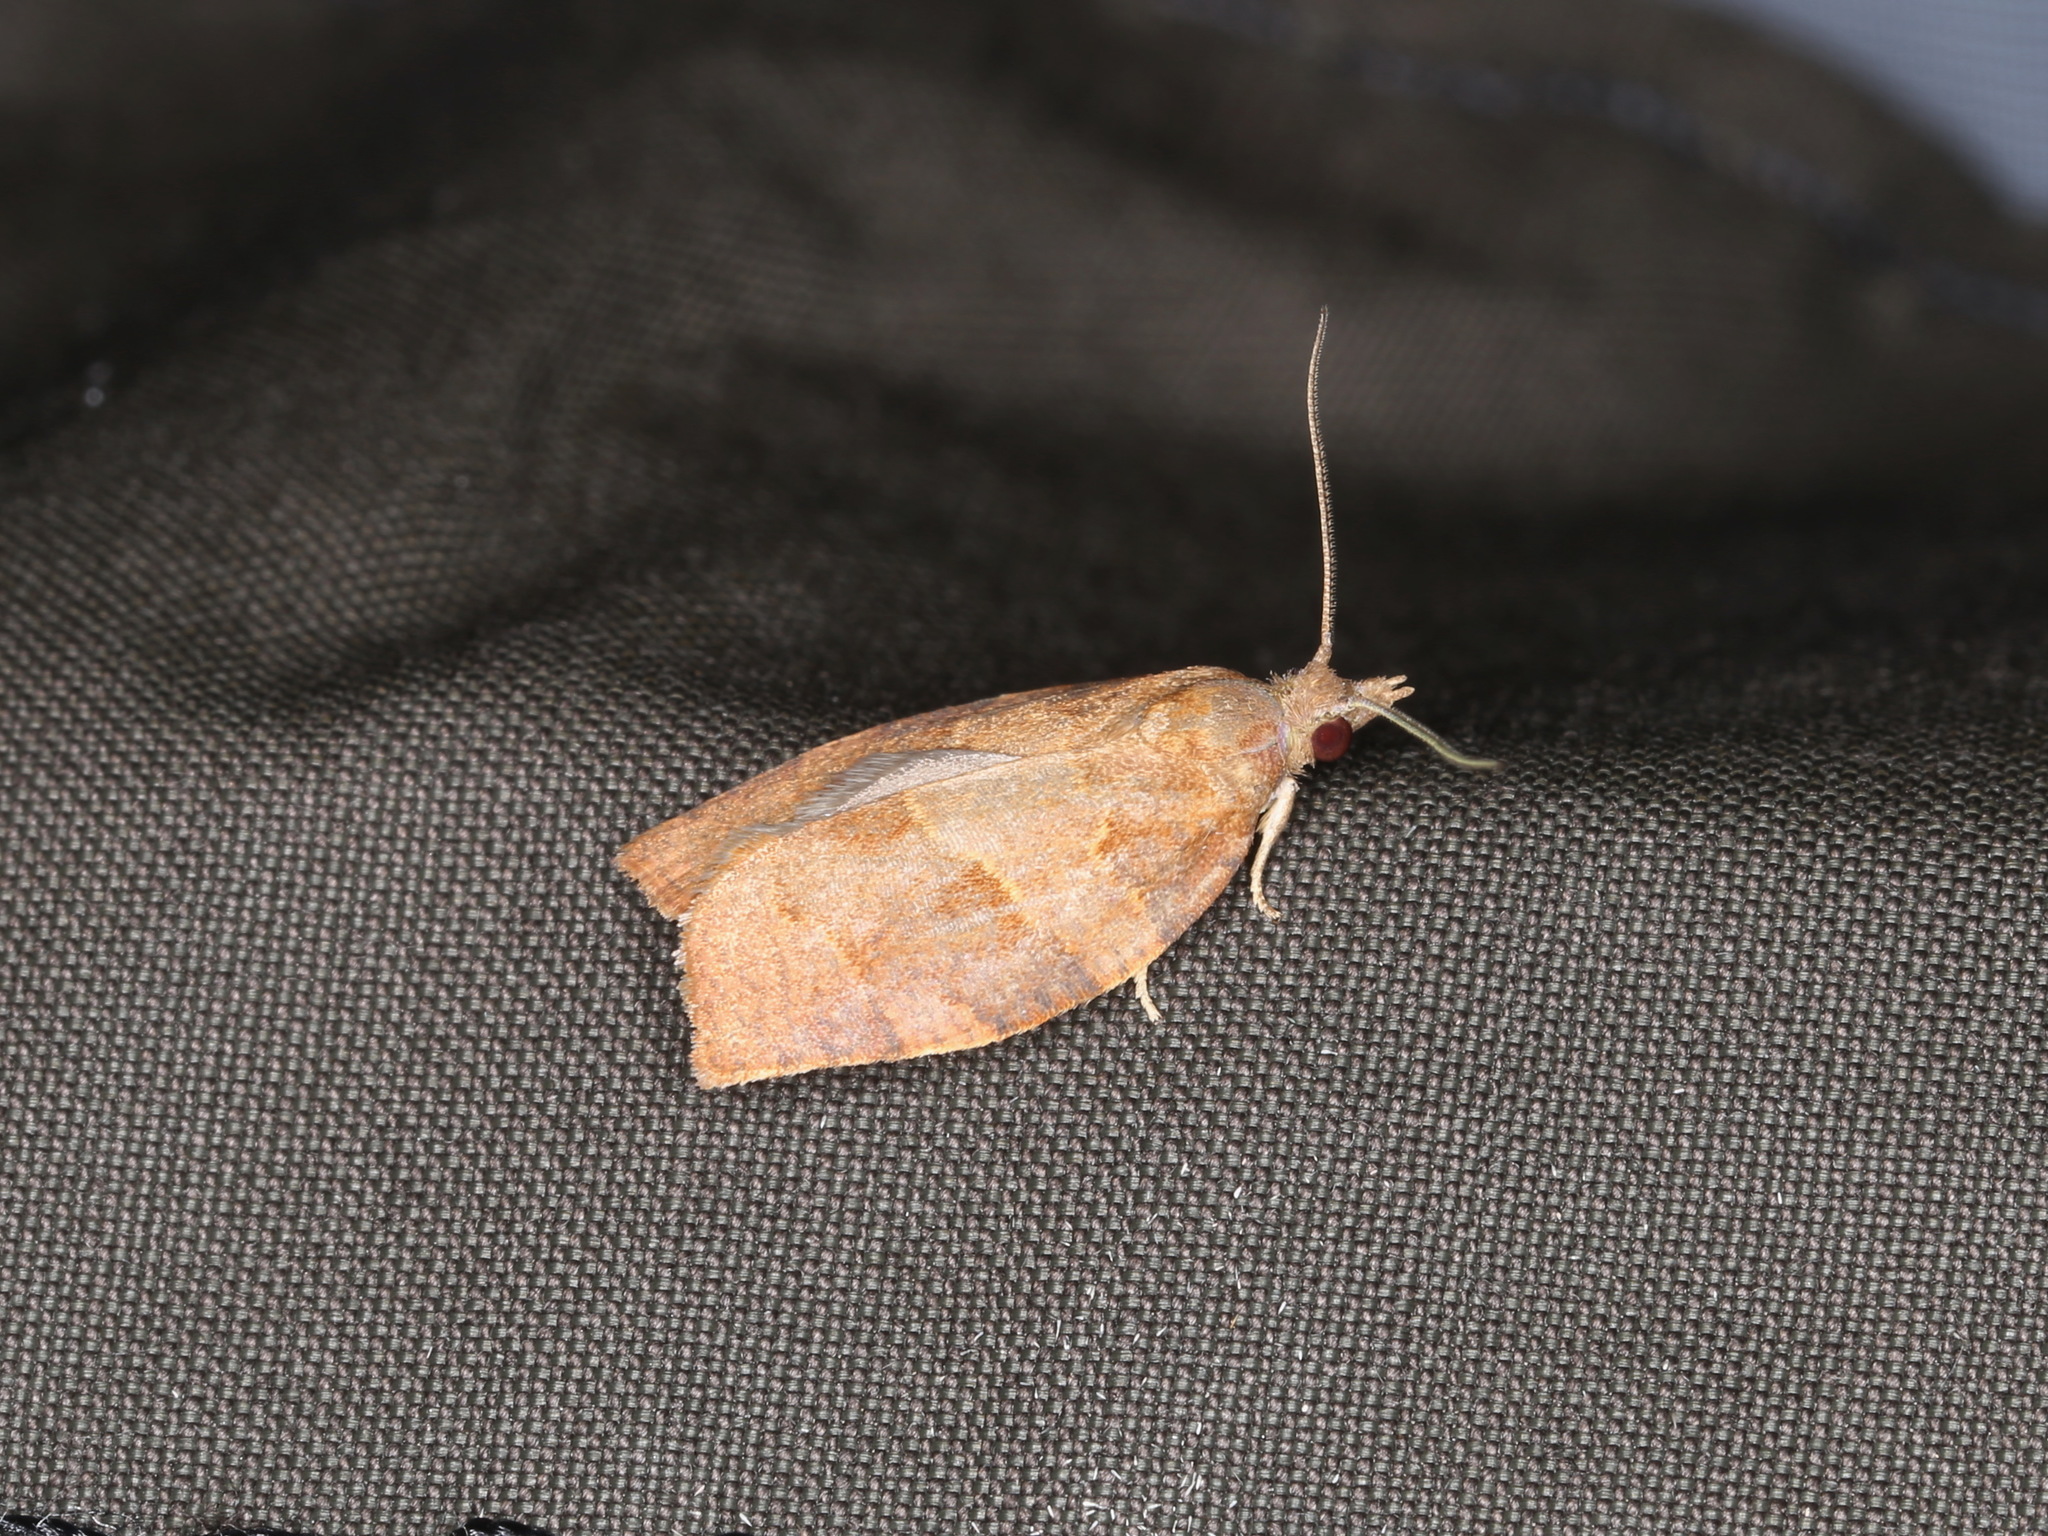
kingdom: Animalia
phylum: Arthropoda
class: Insecta
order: Lepidoptera
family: Tortricidae
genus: Pandemis
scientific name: Pandemis heparana
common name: Dark fruit-tree tortrix
